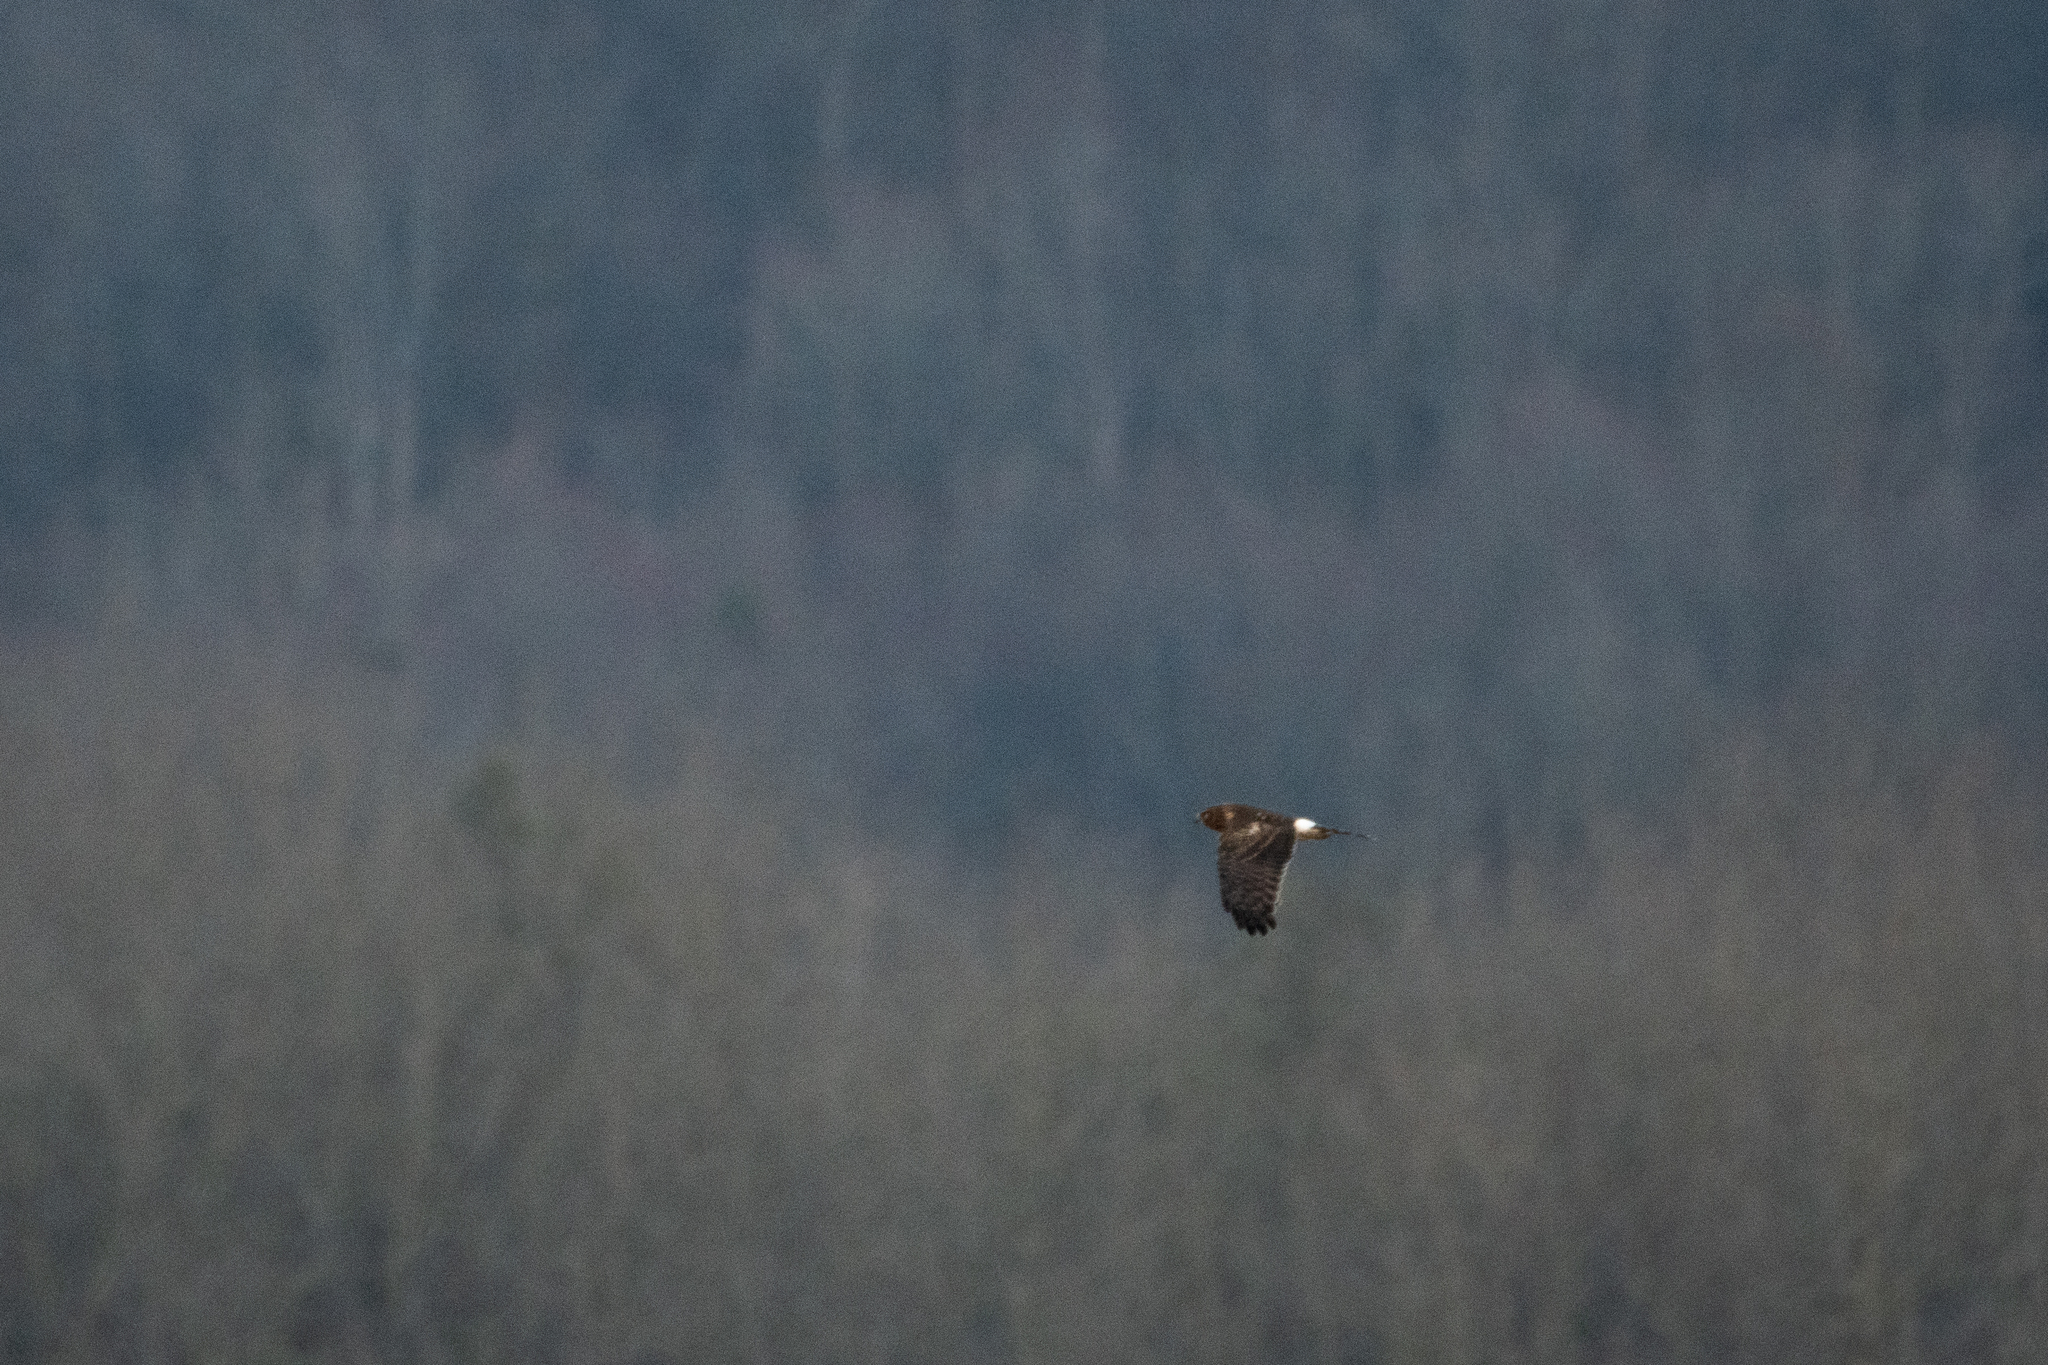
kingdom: Animalia
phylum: Chordata
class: Aves
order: Accipitriformes
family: Accipitridae
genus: Circus
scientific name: Circus cyaneus
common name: Hen harrier
